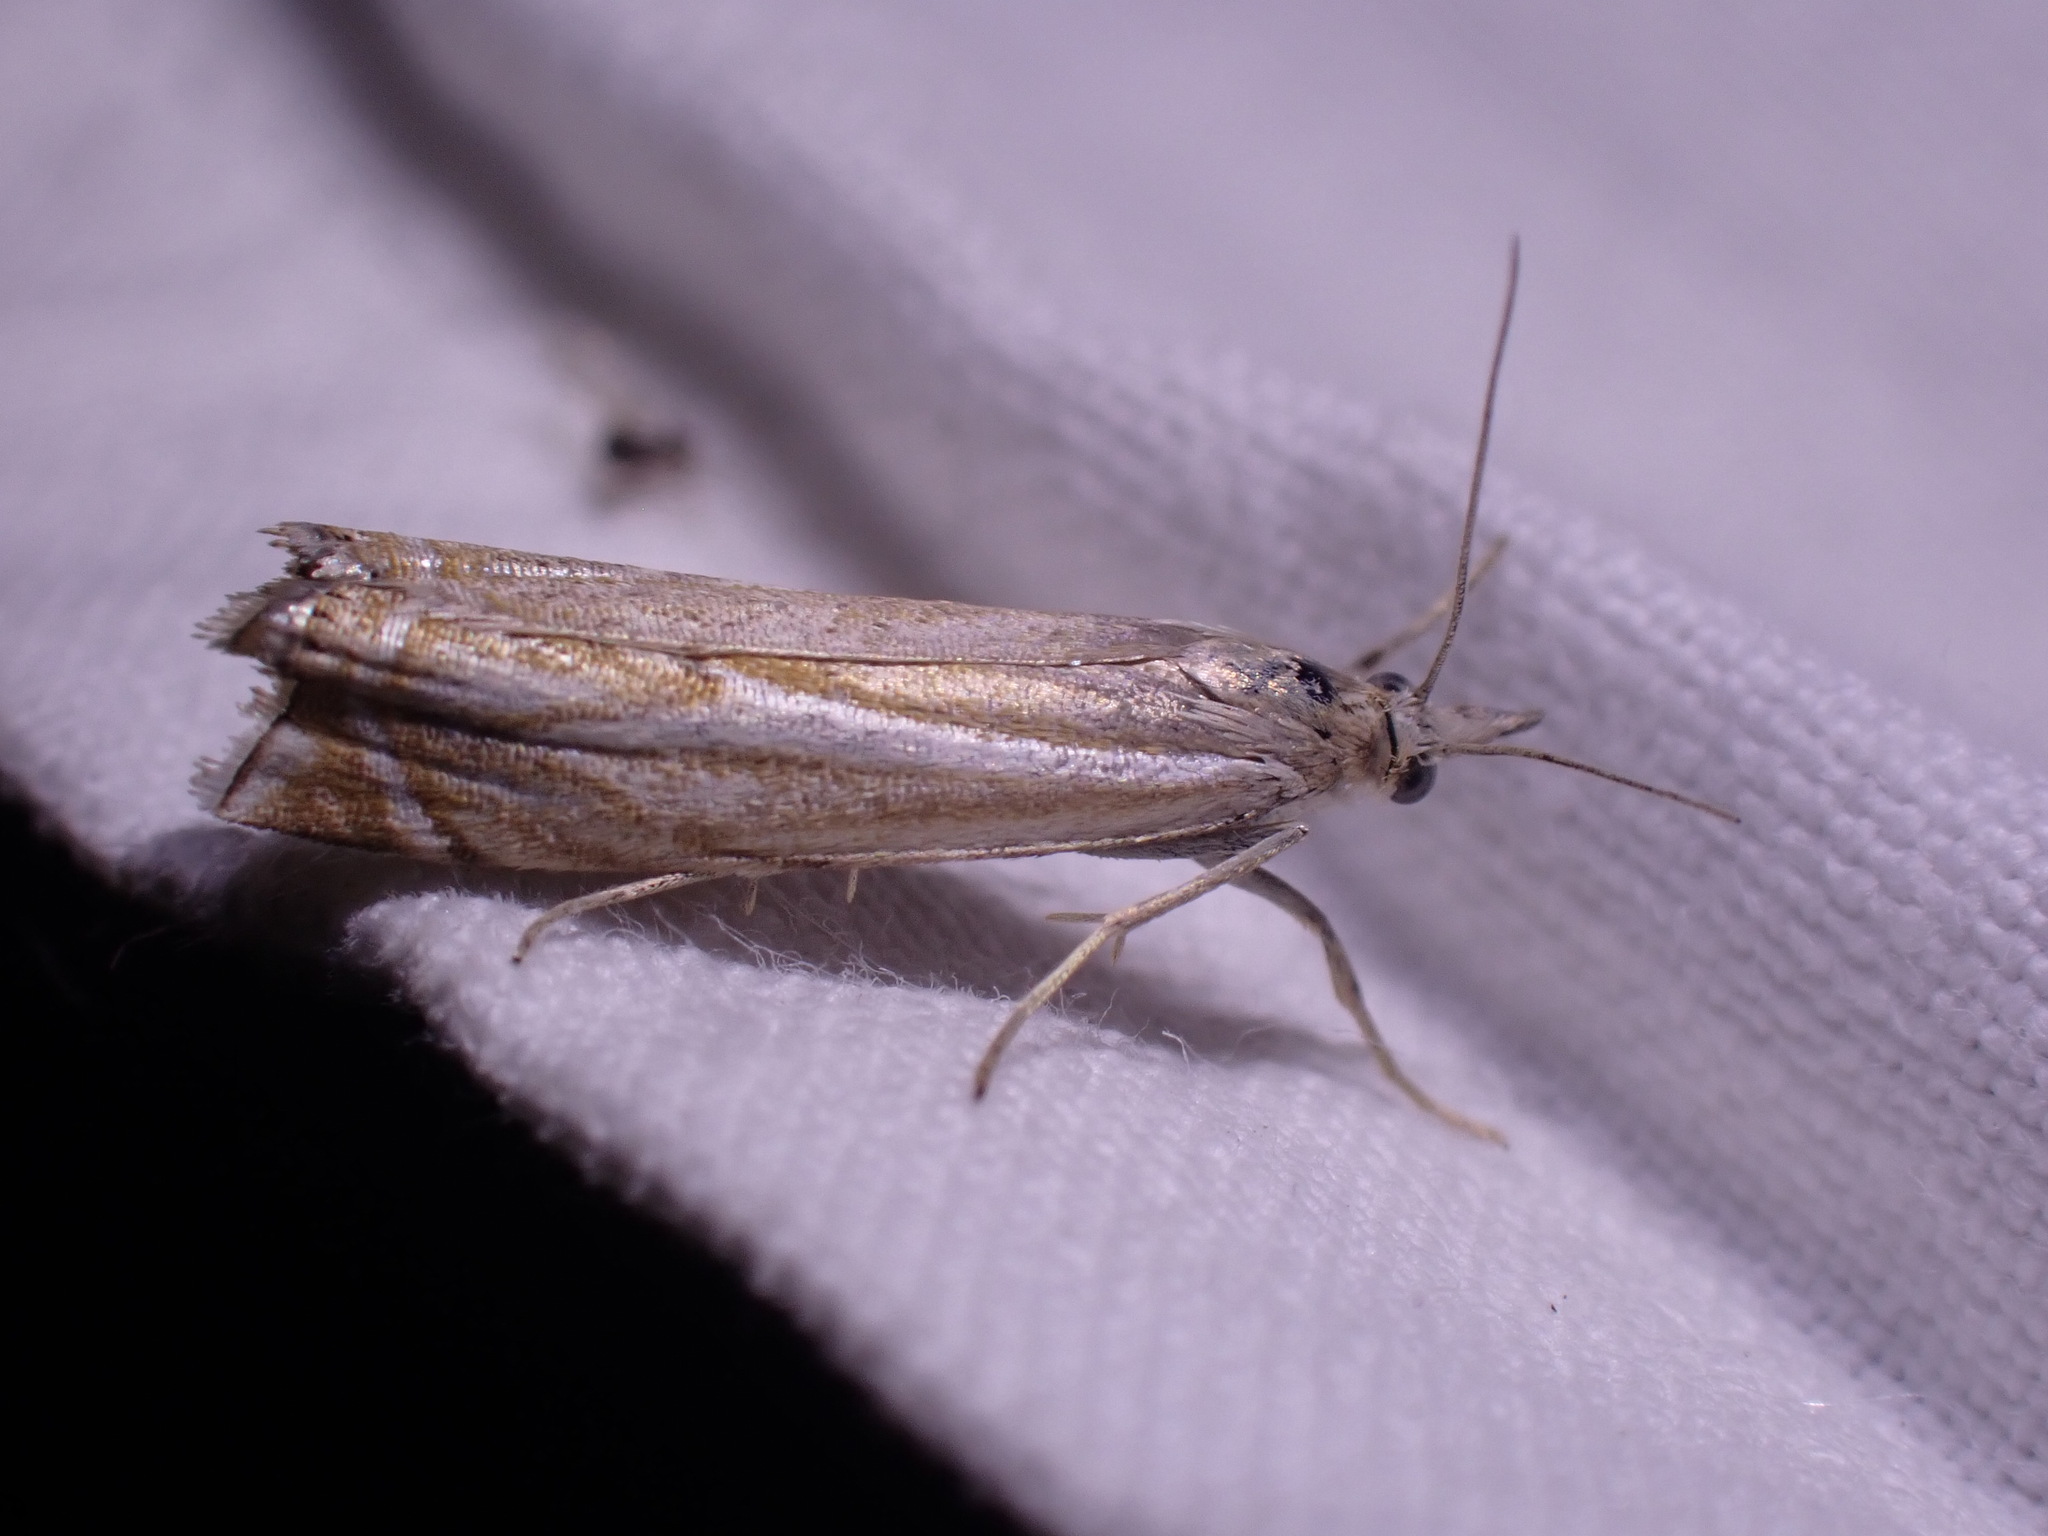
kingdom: Animalia
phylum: Arthropoda
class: Insecta
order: Lepidoptera
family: Crambidae
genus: Crambus
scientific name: Crambus nemorella
